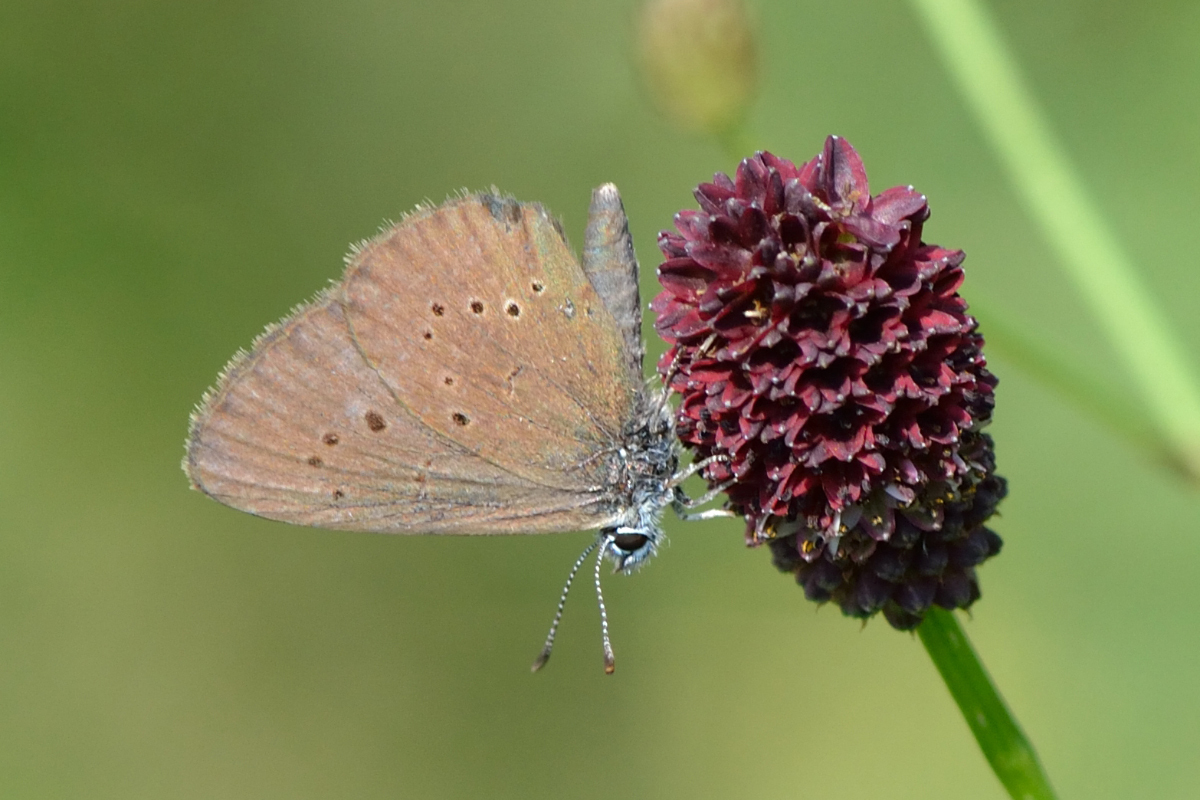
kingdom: Animalia
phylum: Arthropoda
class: Insecta
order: Lepidoptera
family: Lycaenidae
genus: Maculinea
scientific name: Maculinea nausithous
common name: Dusky large blue
